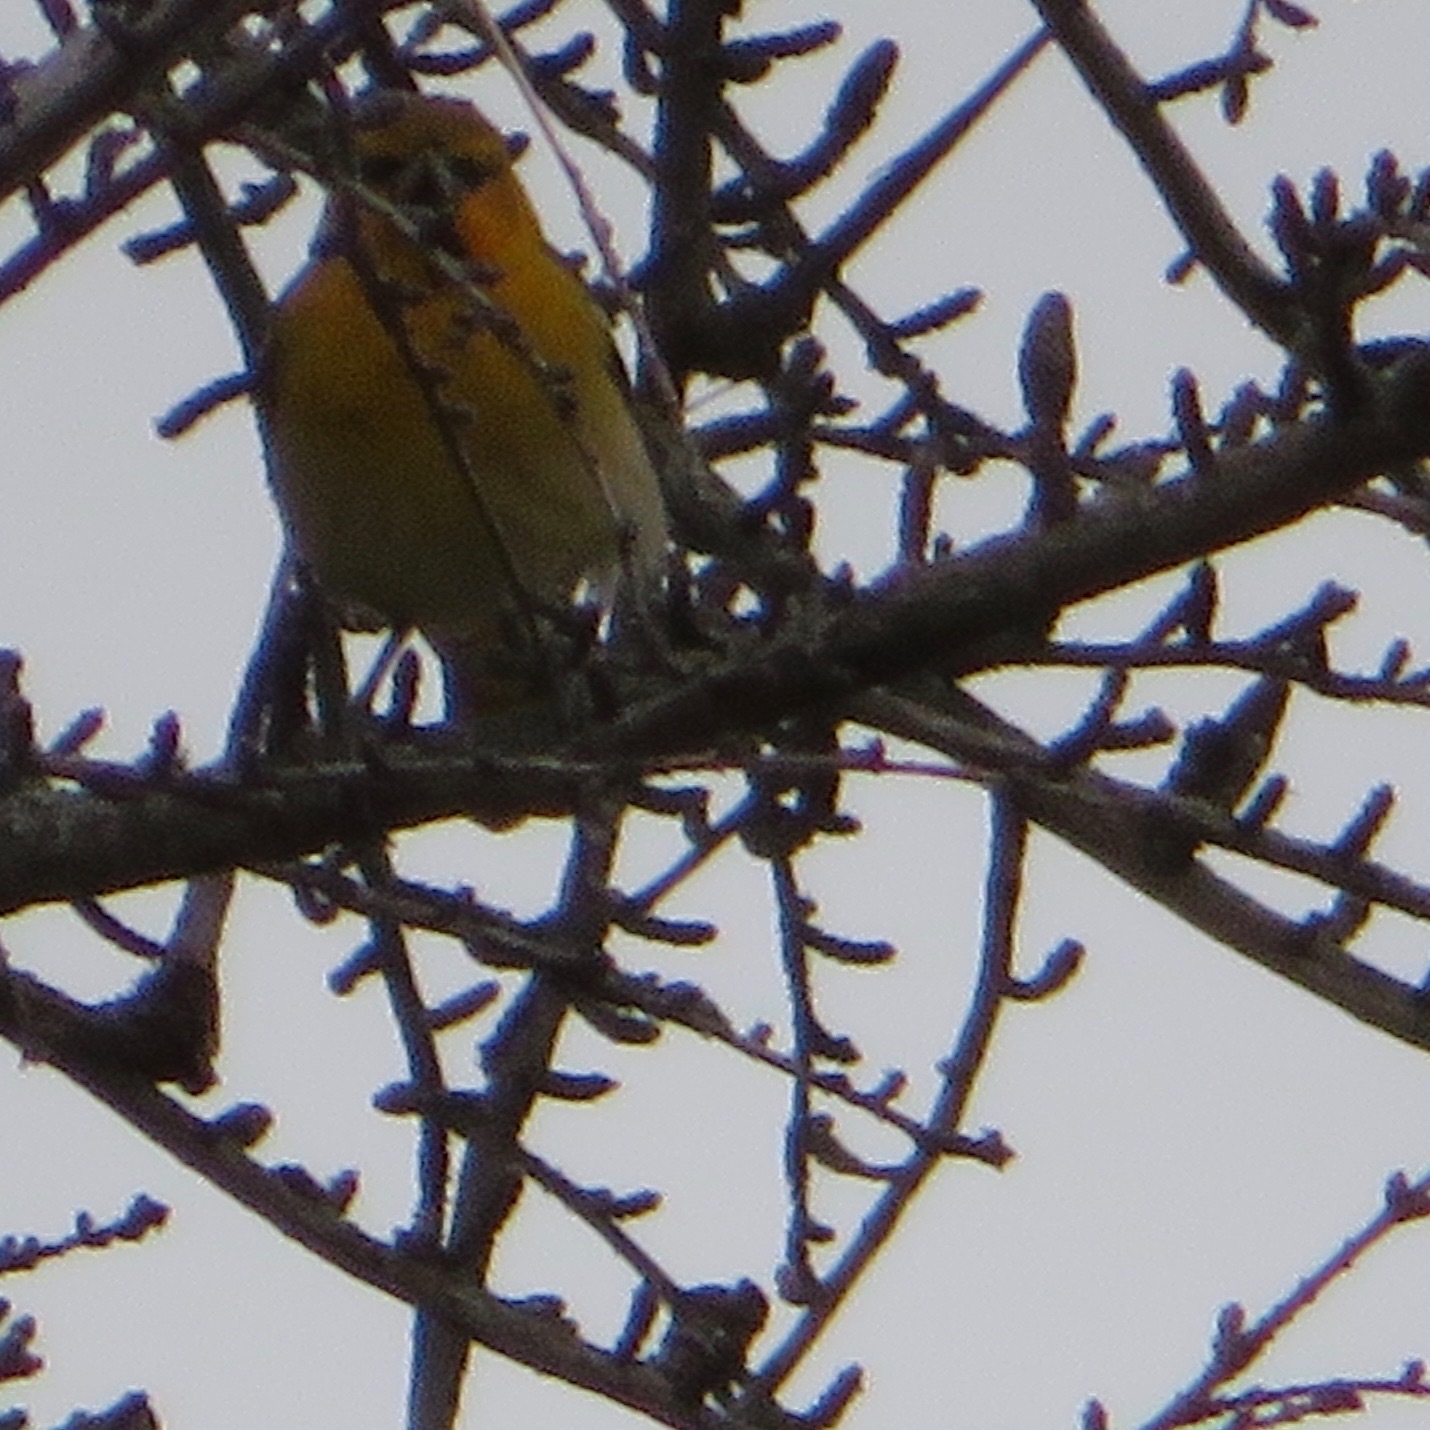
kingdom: Animalia
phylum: Chordata
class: Aves
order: Passeriformes
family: Icteridae
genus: Icterus
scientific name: Icterus bullockii
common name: Bullock's oriole
